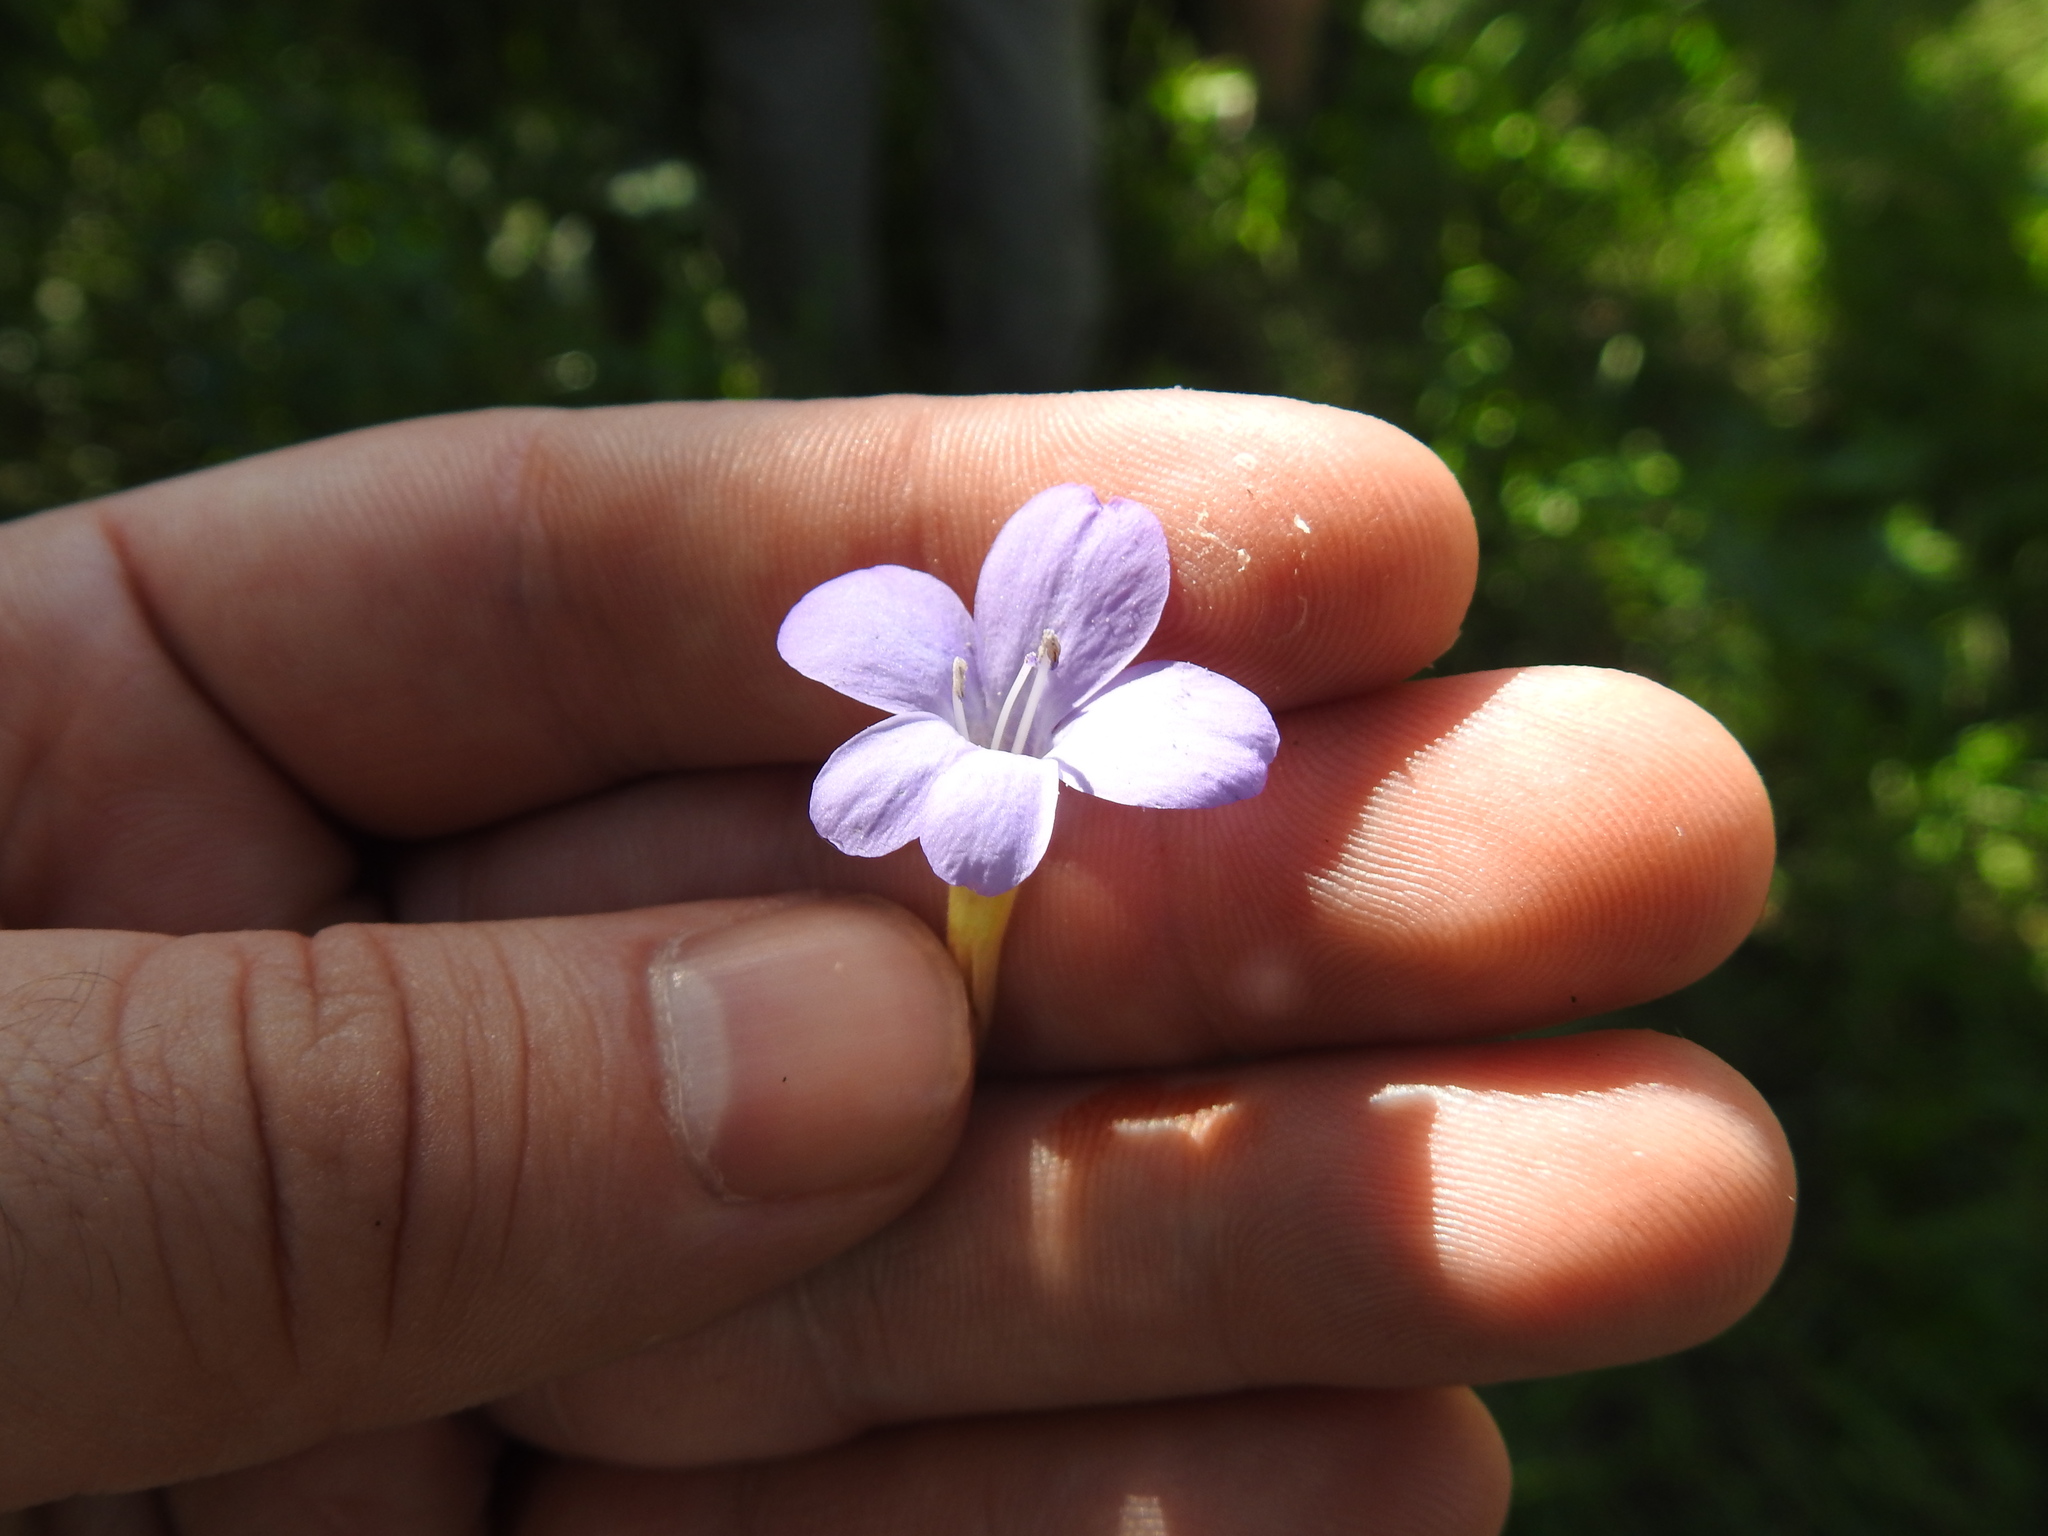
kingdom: Plantae
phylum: Tracheophyta
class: Magnoliopsida
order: Lamiales
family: Acanthaceae
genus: Barleria
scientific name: Barleria obtusa
